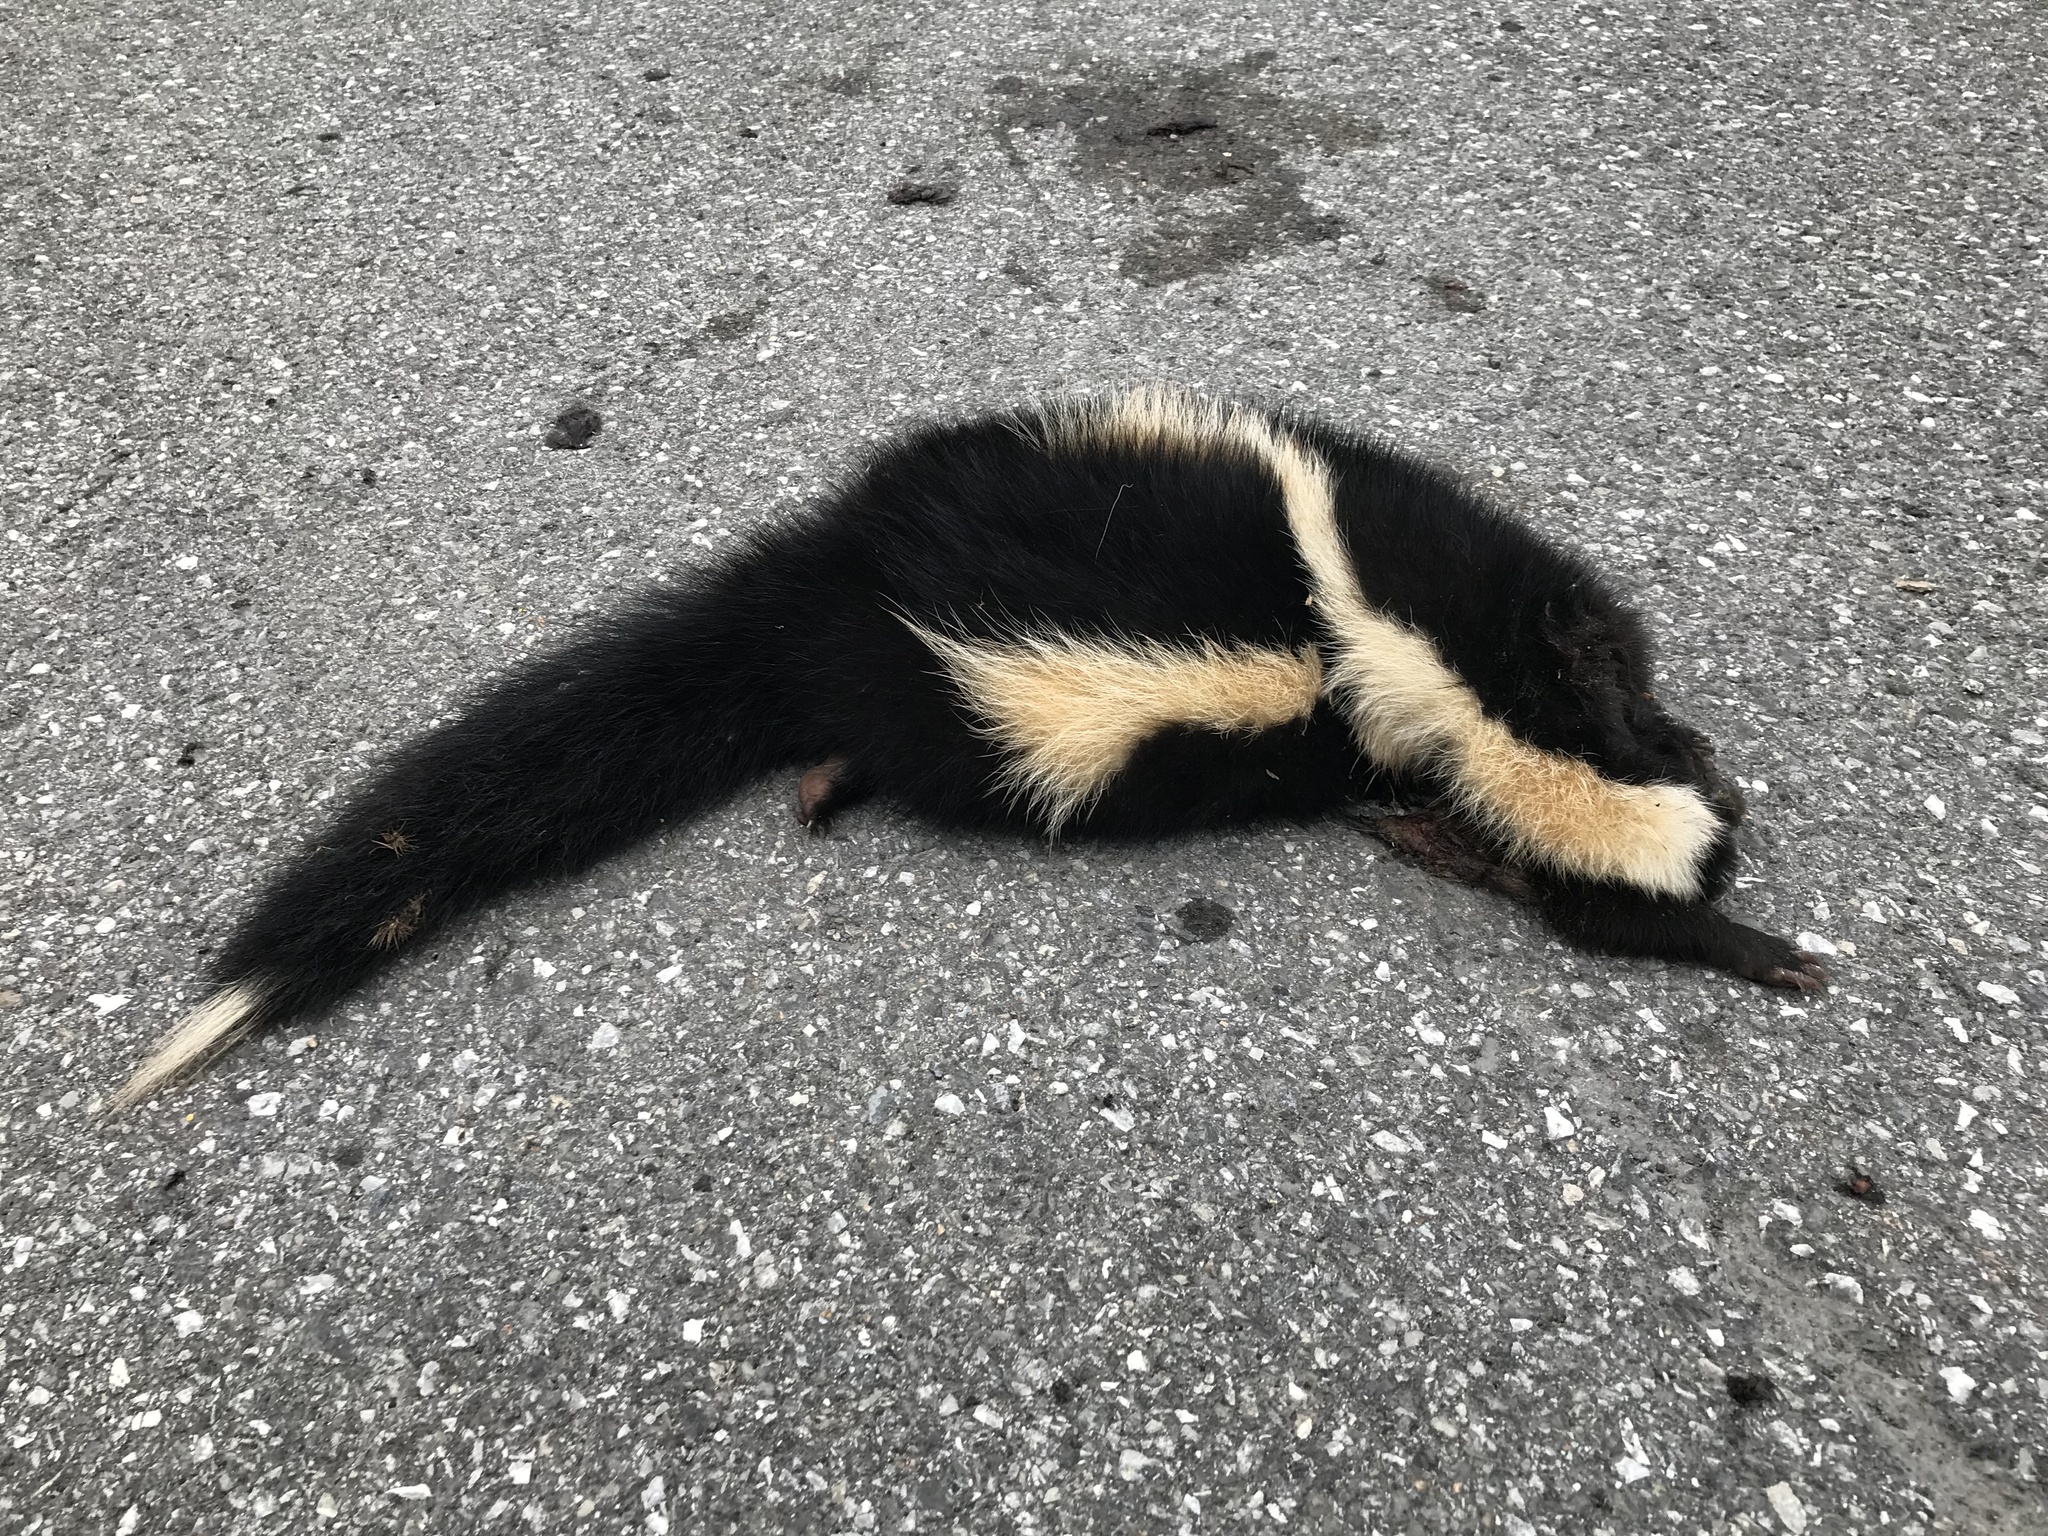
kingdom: Animalia
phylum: Chordata
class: Mammalia
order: Carnivora
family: Mephitidae
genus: Mephitis
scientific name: Mephitis mephitis
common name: Striped skunk
